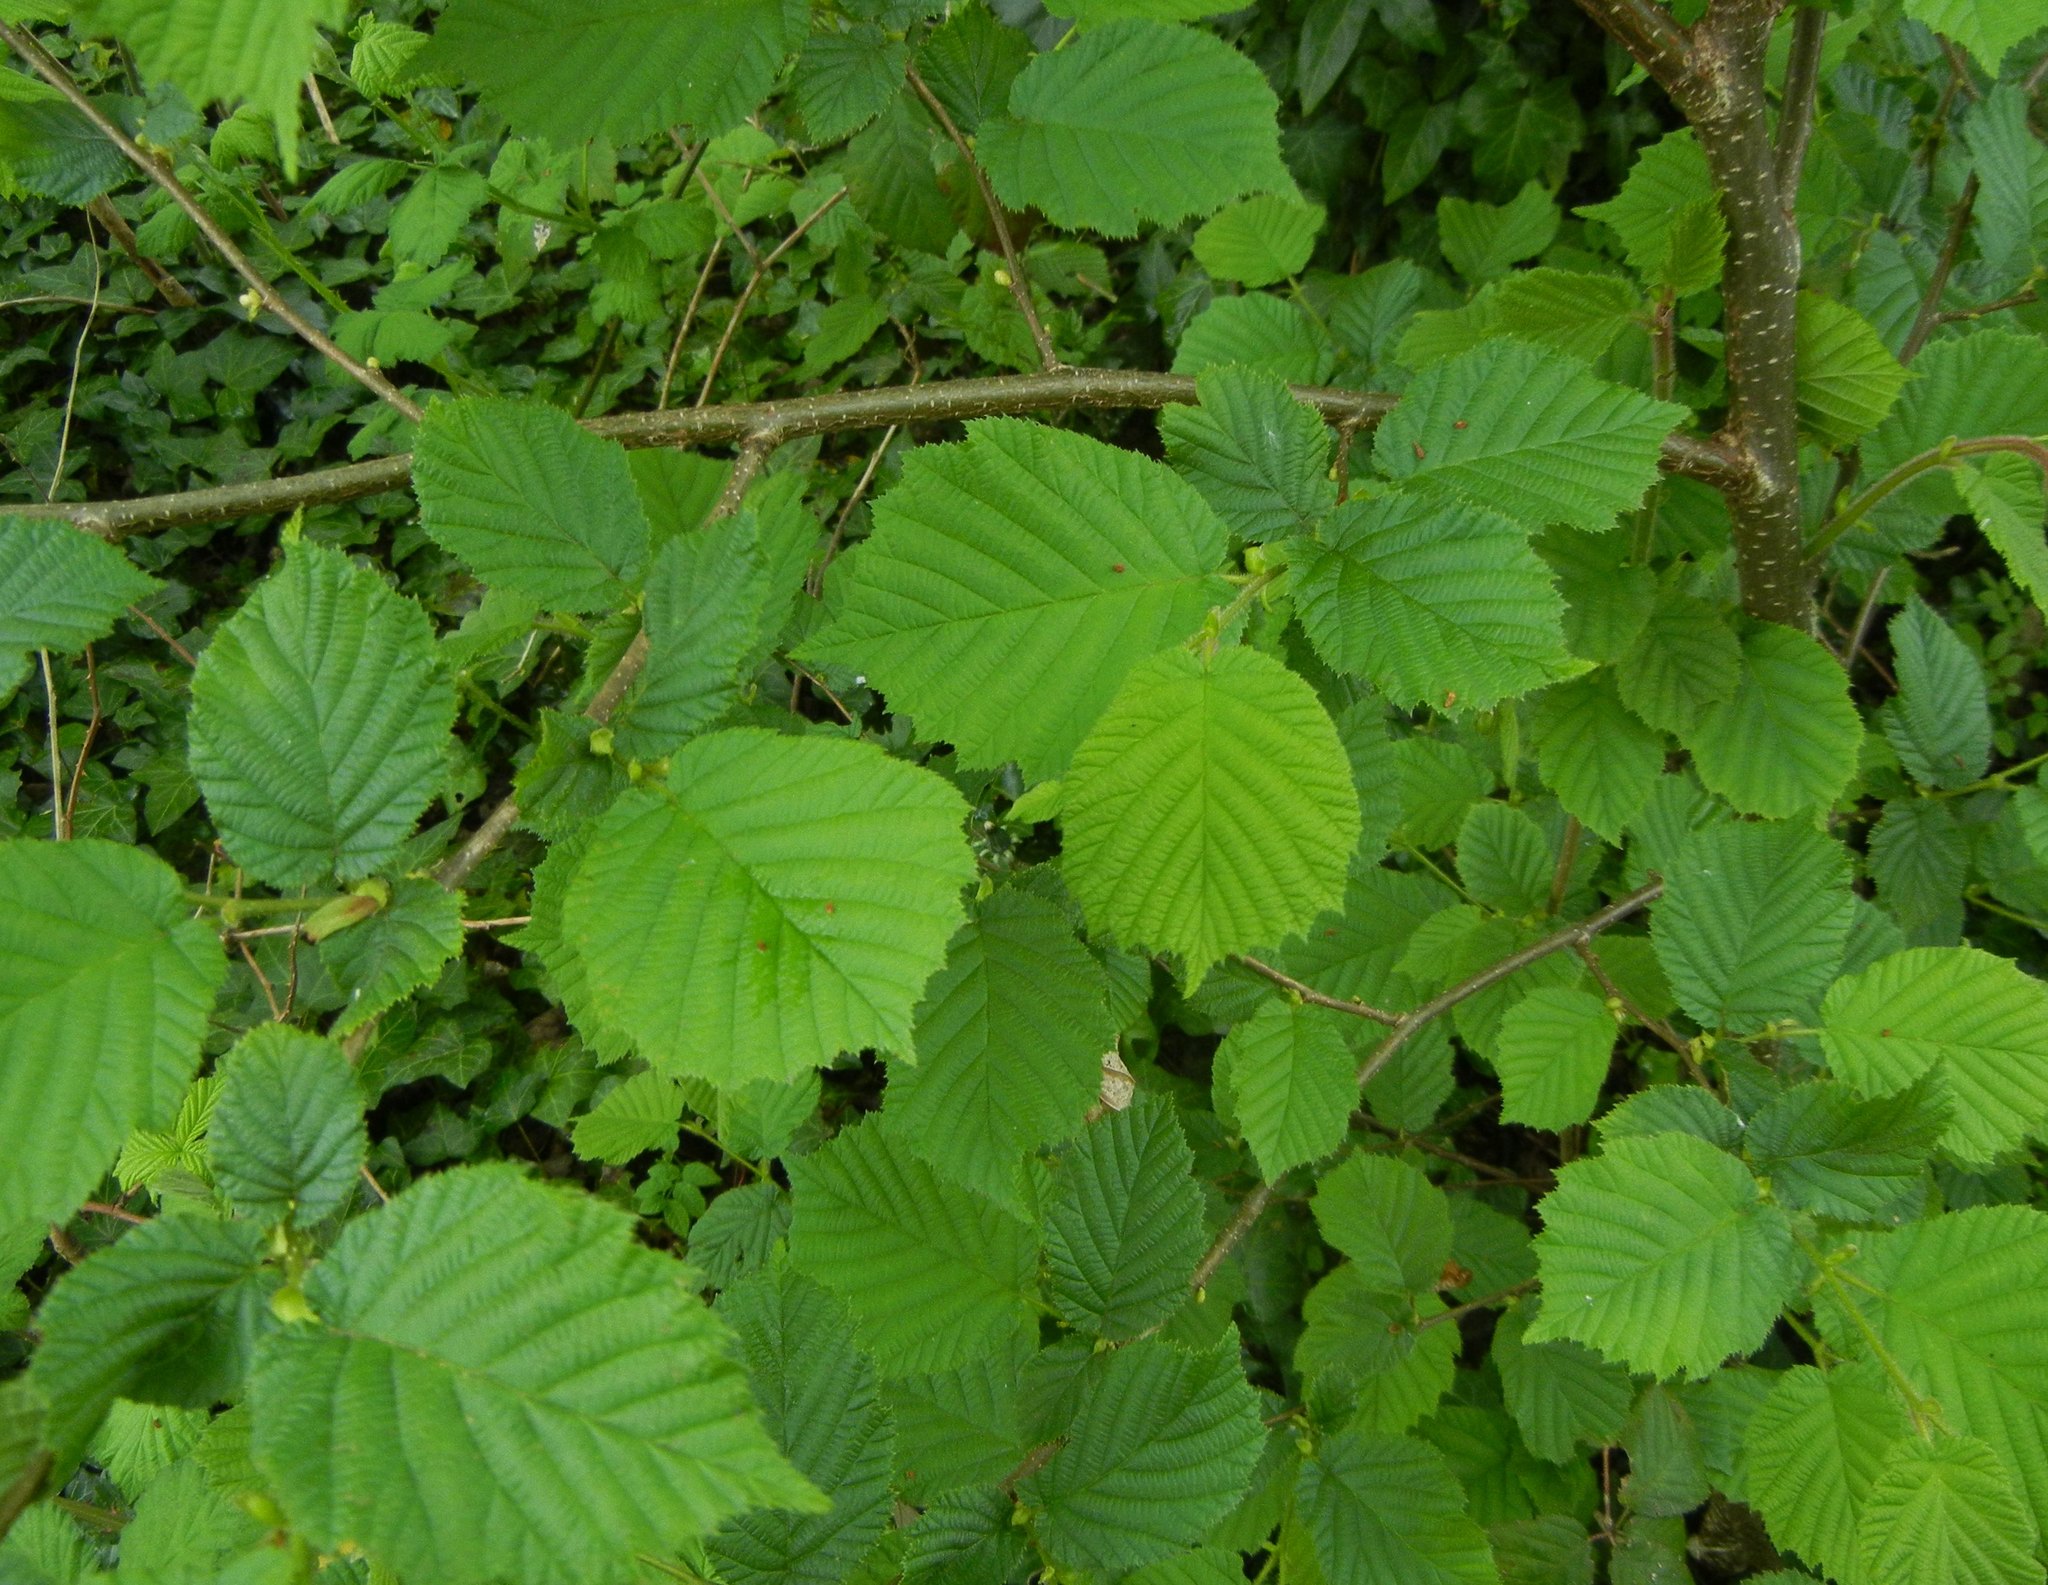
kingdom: Plantae
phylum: Tracheophyta
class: Magnoliopsida
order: Fagales
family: Betulaceae
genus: Corylus
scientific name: Corylus avellana
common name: European hazel
